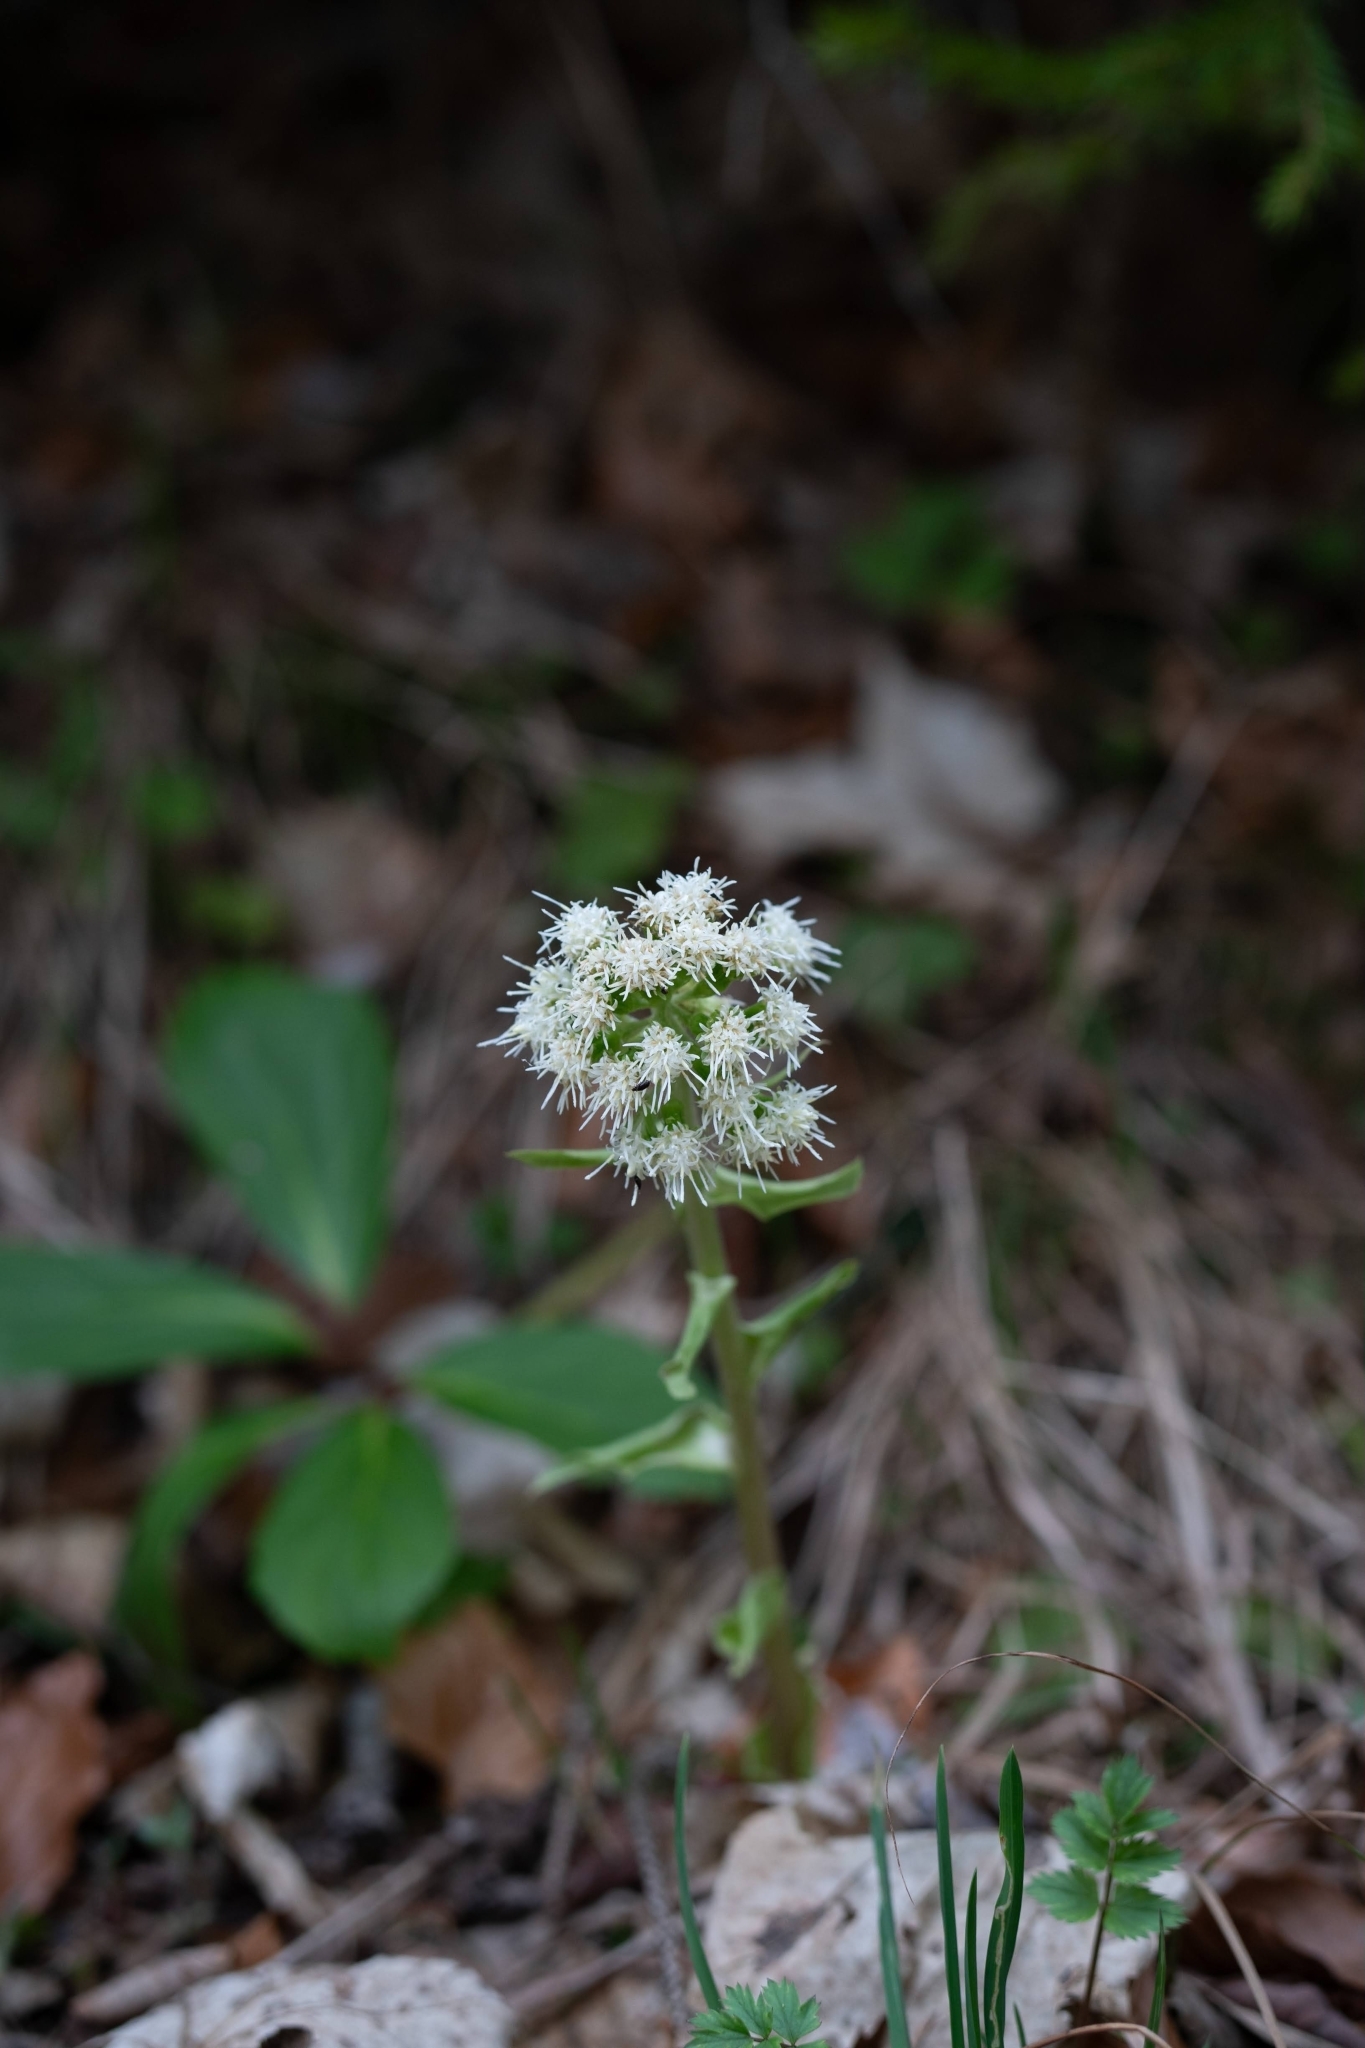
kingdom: Plantae
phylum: Tracheophyta
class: Magnoliopsida
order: Asterales
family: Asteraceae
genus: Petasites
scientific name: Petasites albus
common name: White butterbur
